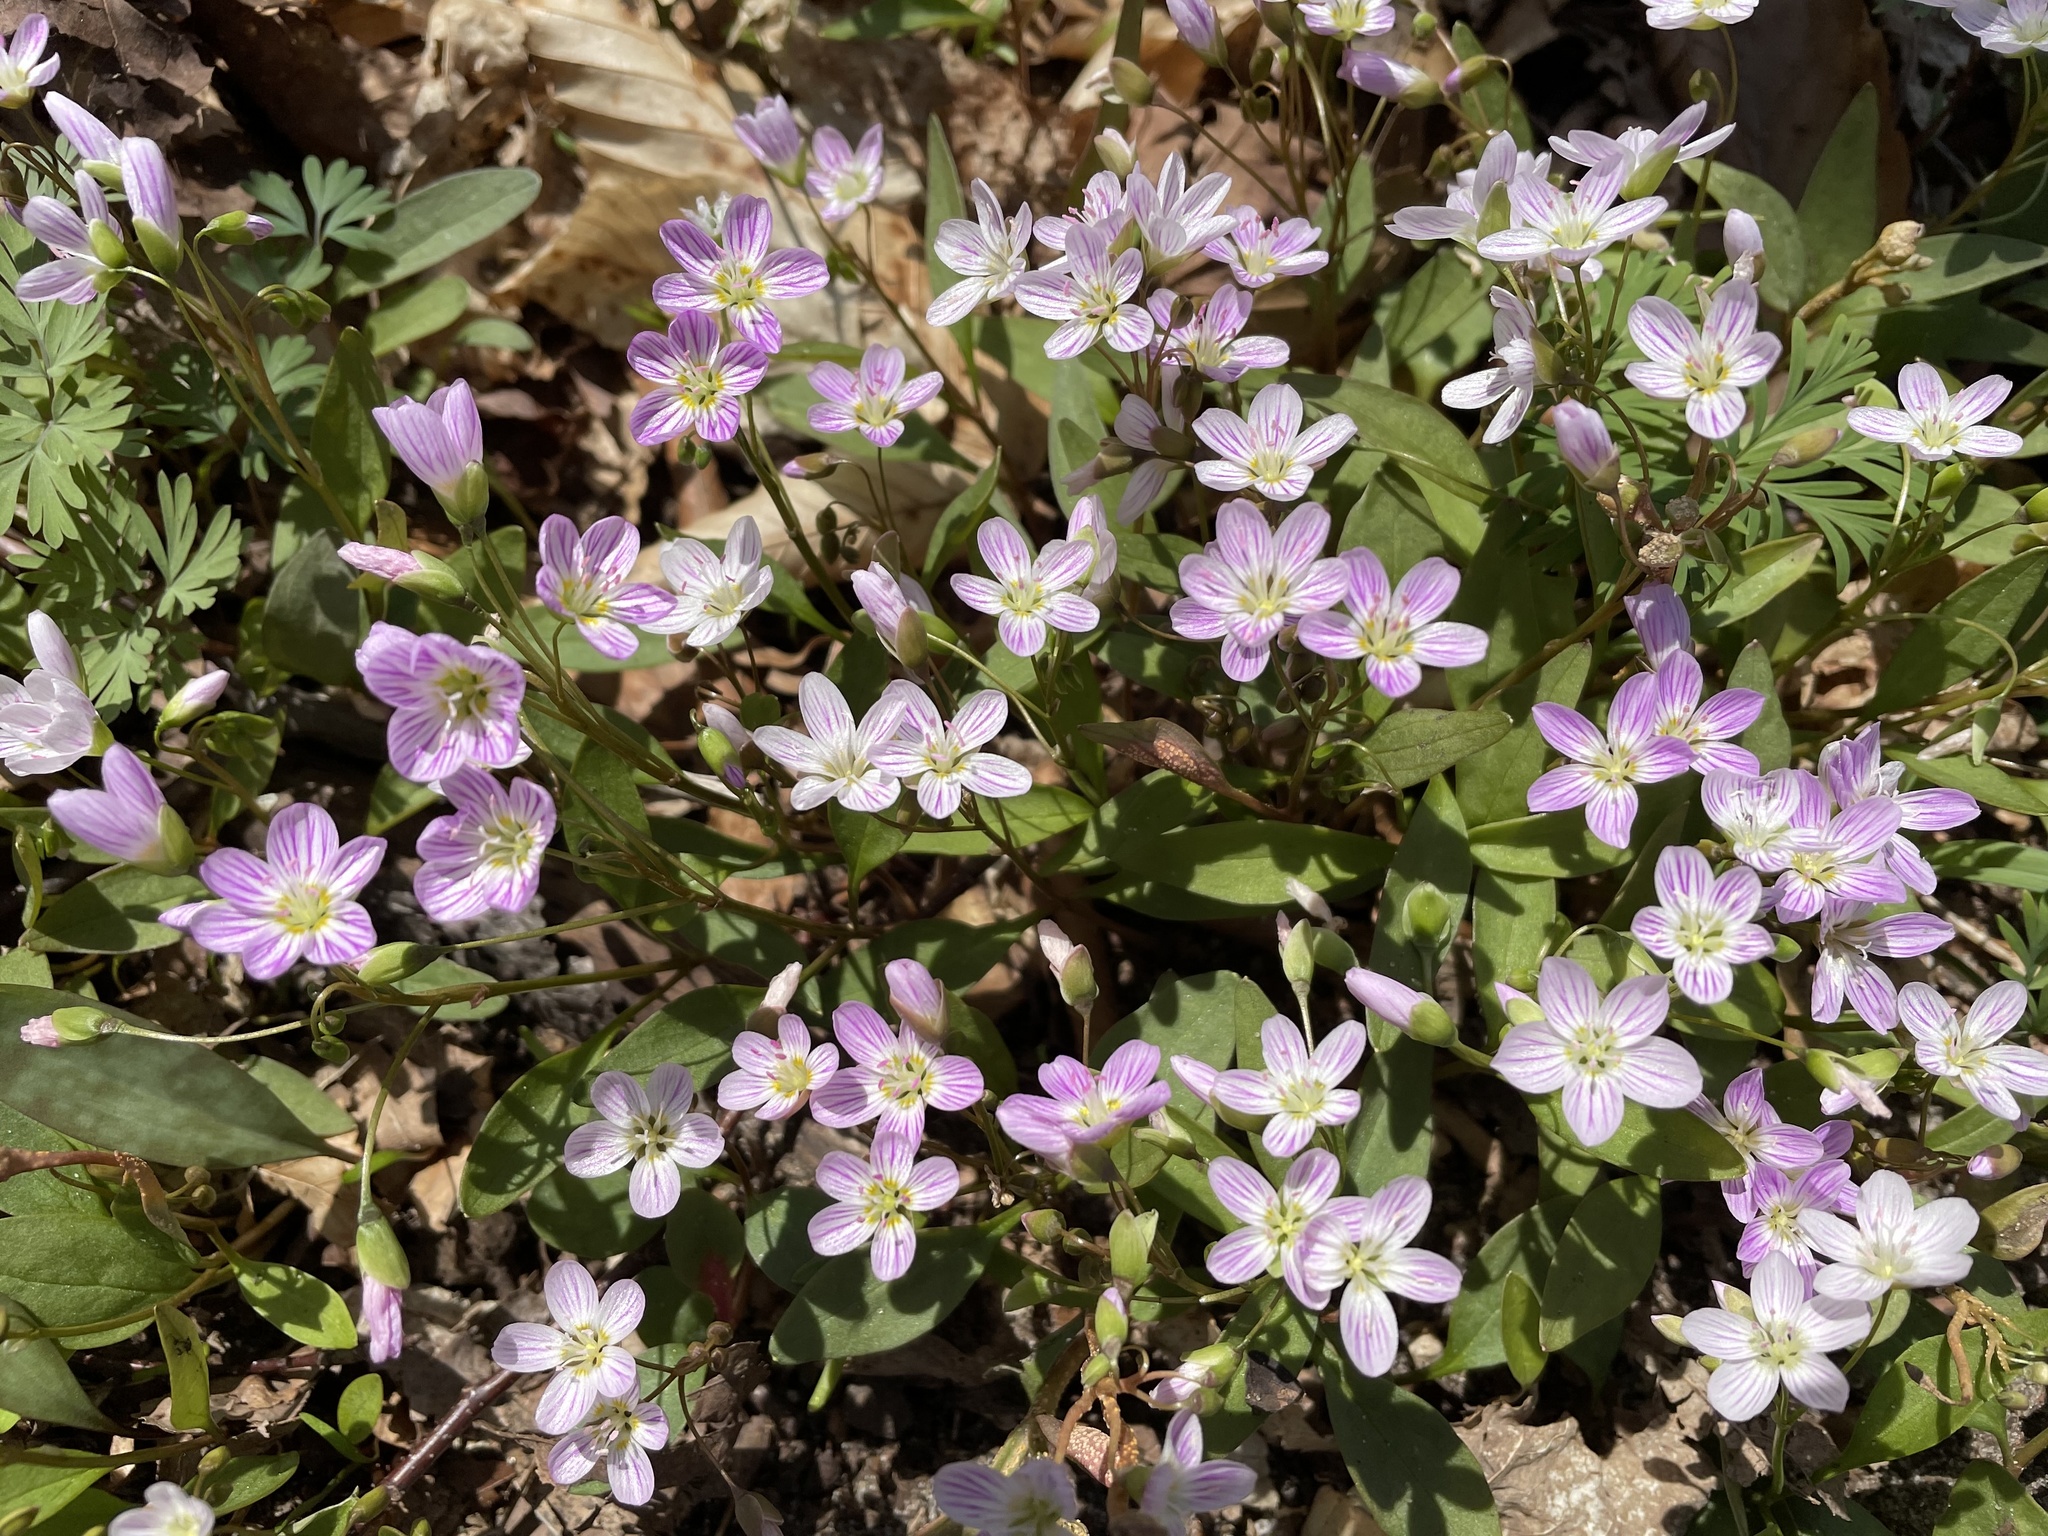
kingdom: Plantae
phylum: Tracheophyta
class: Magnoliopsida
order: Caryophyllales
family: Montiaceae
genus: Claytonia
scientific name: Claytonia caroliniana
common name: Carolina spring beauty
